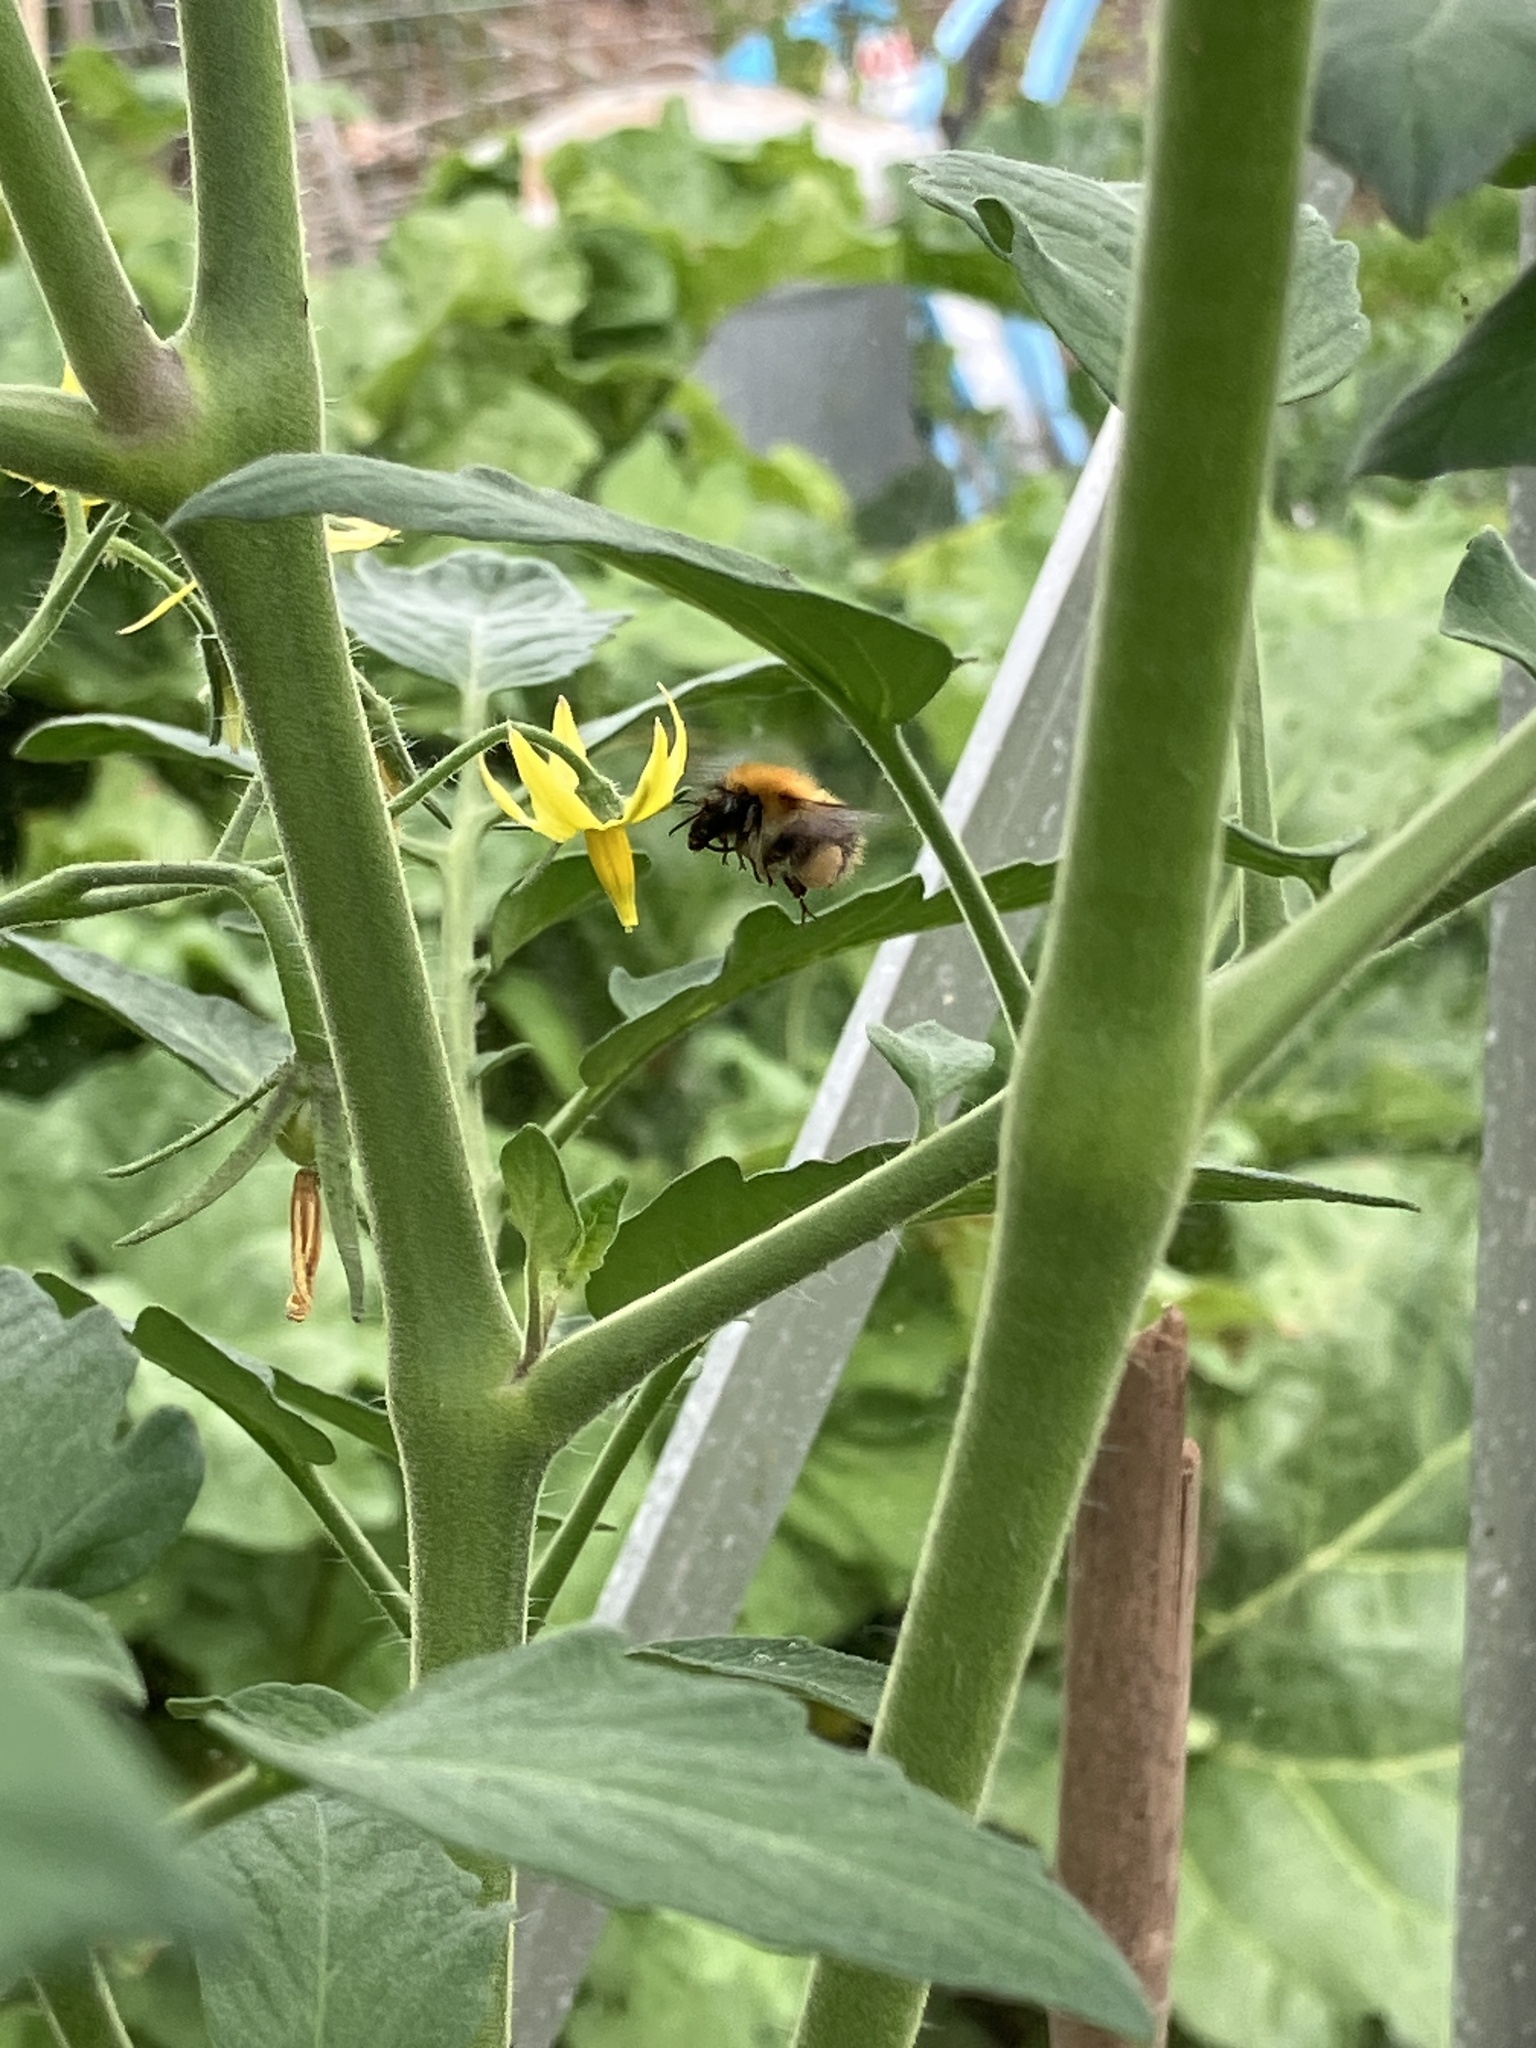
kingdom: Animalia
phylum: Arthropoda
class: Insecta
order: Hymenoptera
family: Apidae
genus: Bombus
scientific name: Bombus pascuorum
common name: Common carder bee
